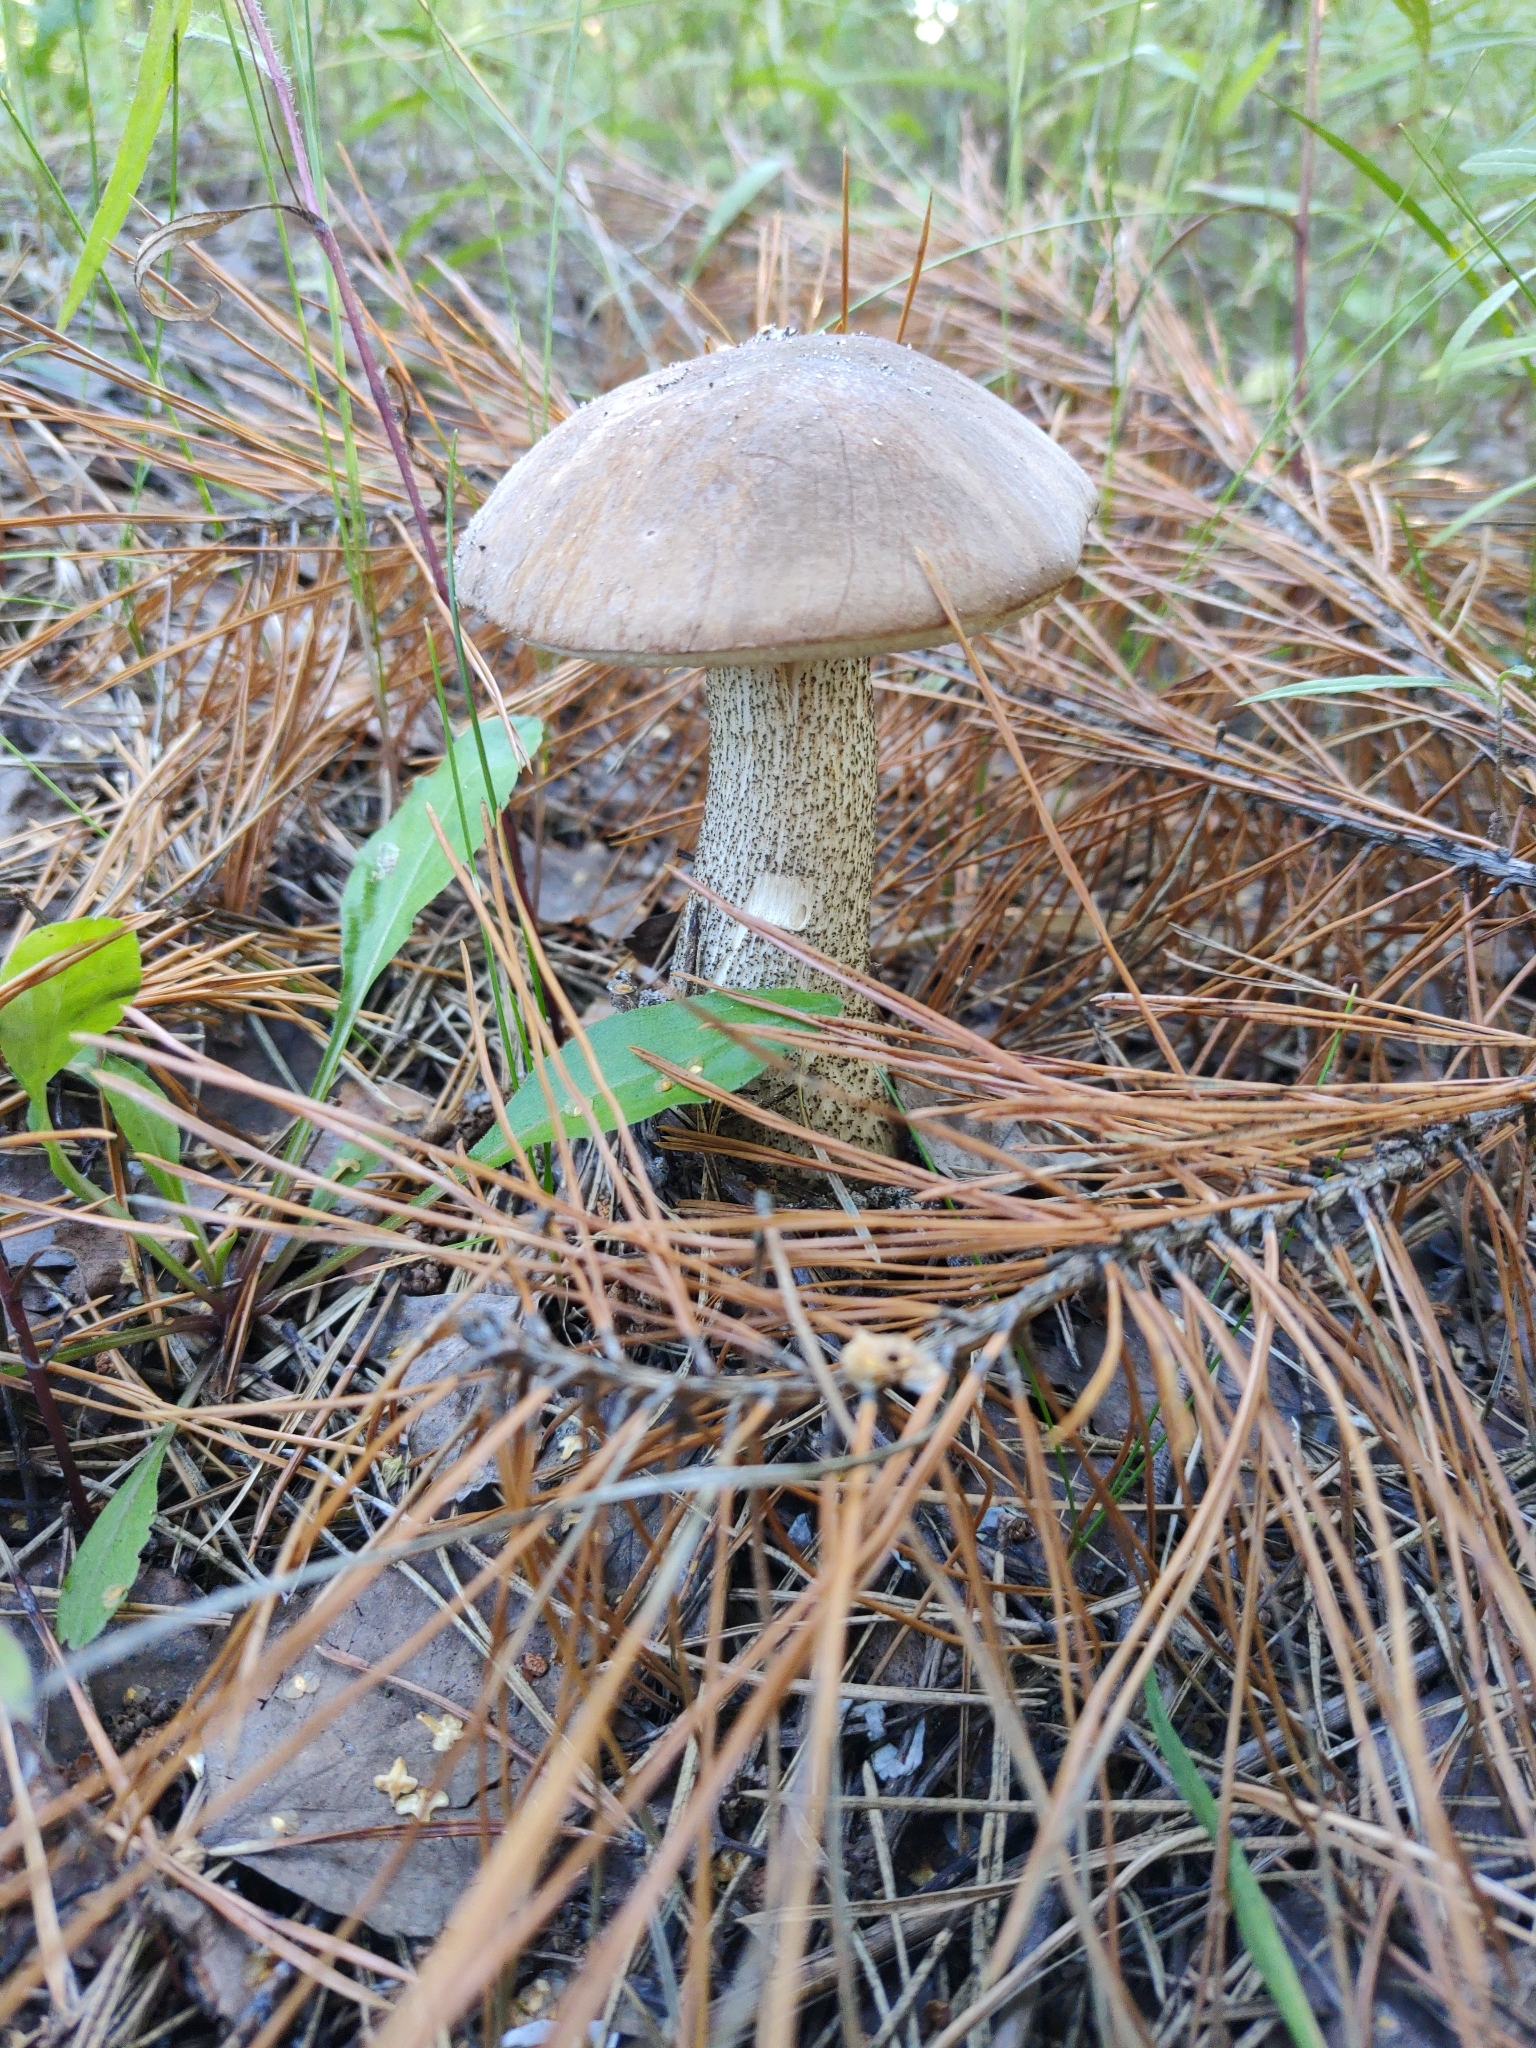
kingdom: Fungi
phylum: Basidiomycota
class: Agaricomycetes
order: Boletales
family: Boletaceae
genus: Leccinum
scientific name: Leccinum scabrum
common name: Blushing bolete
